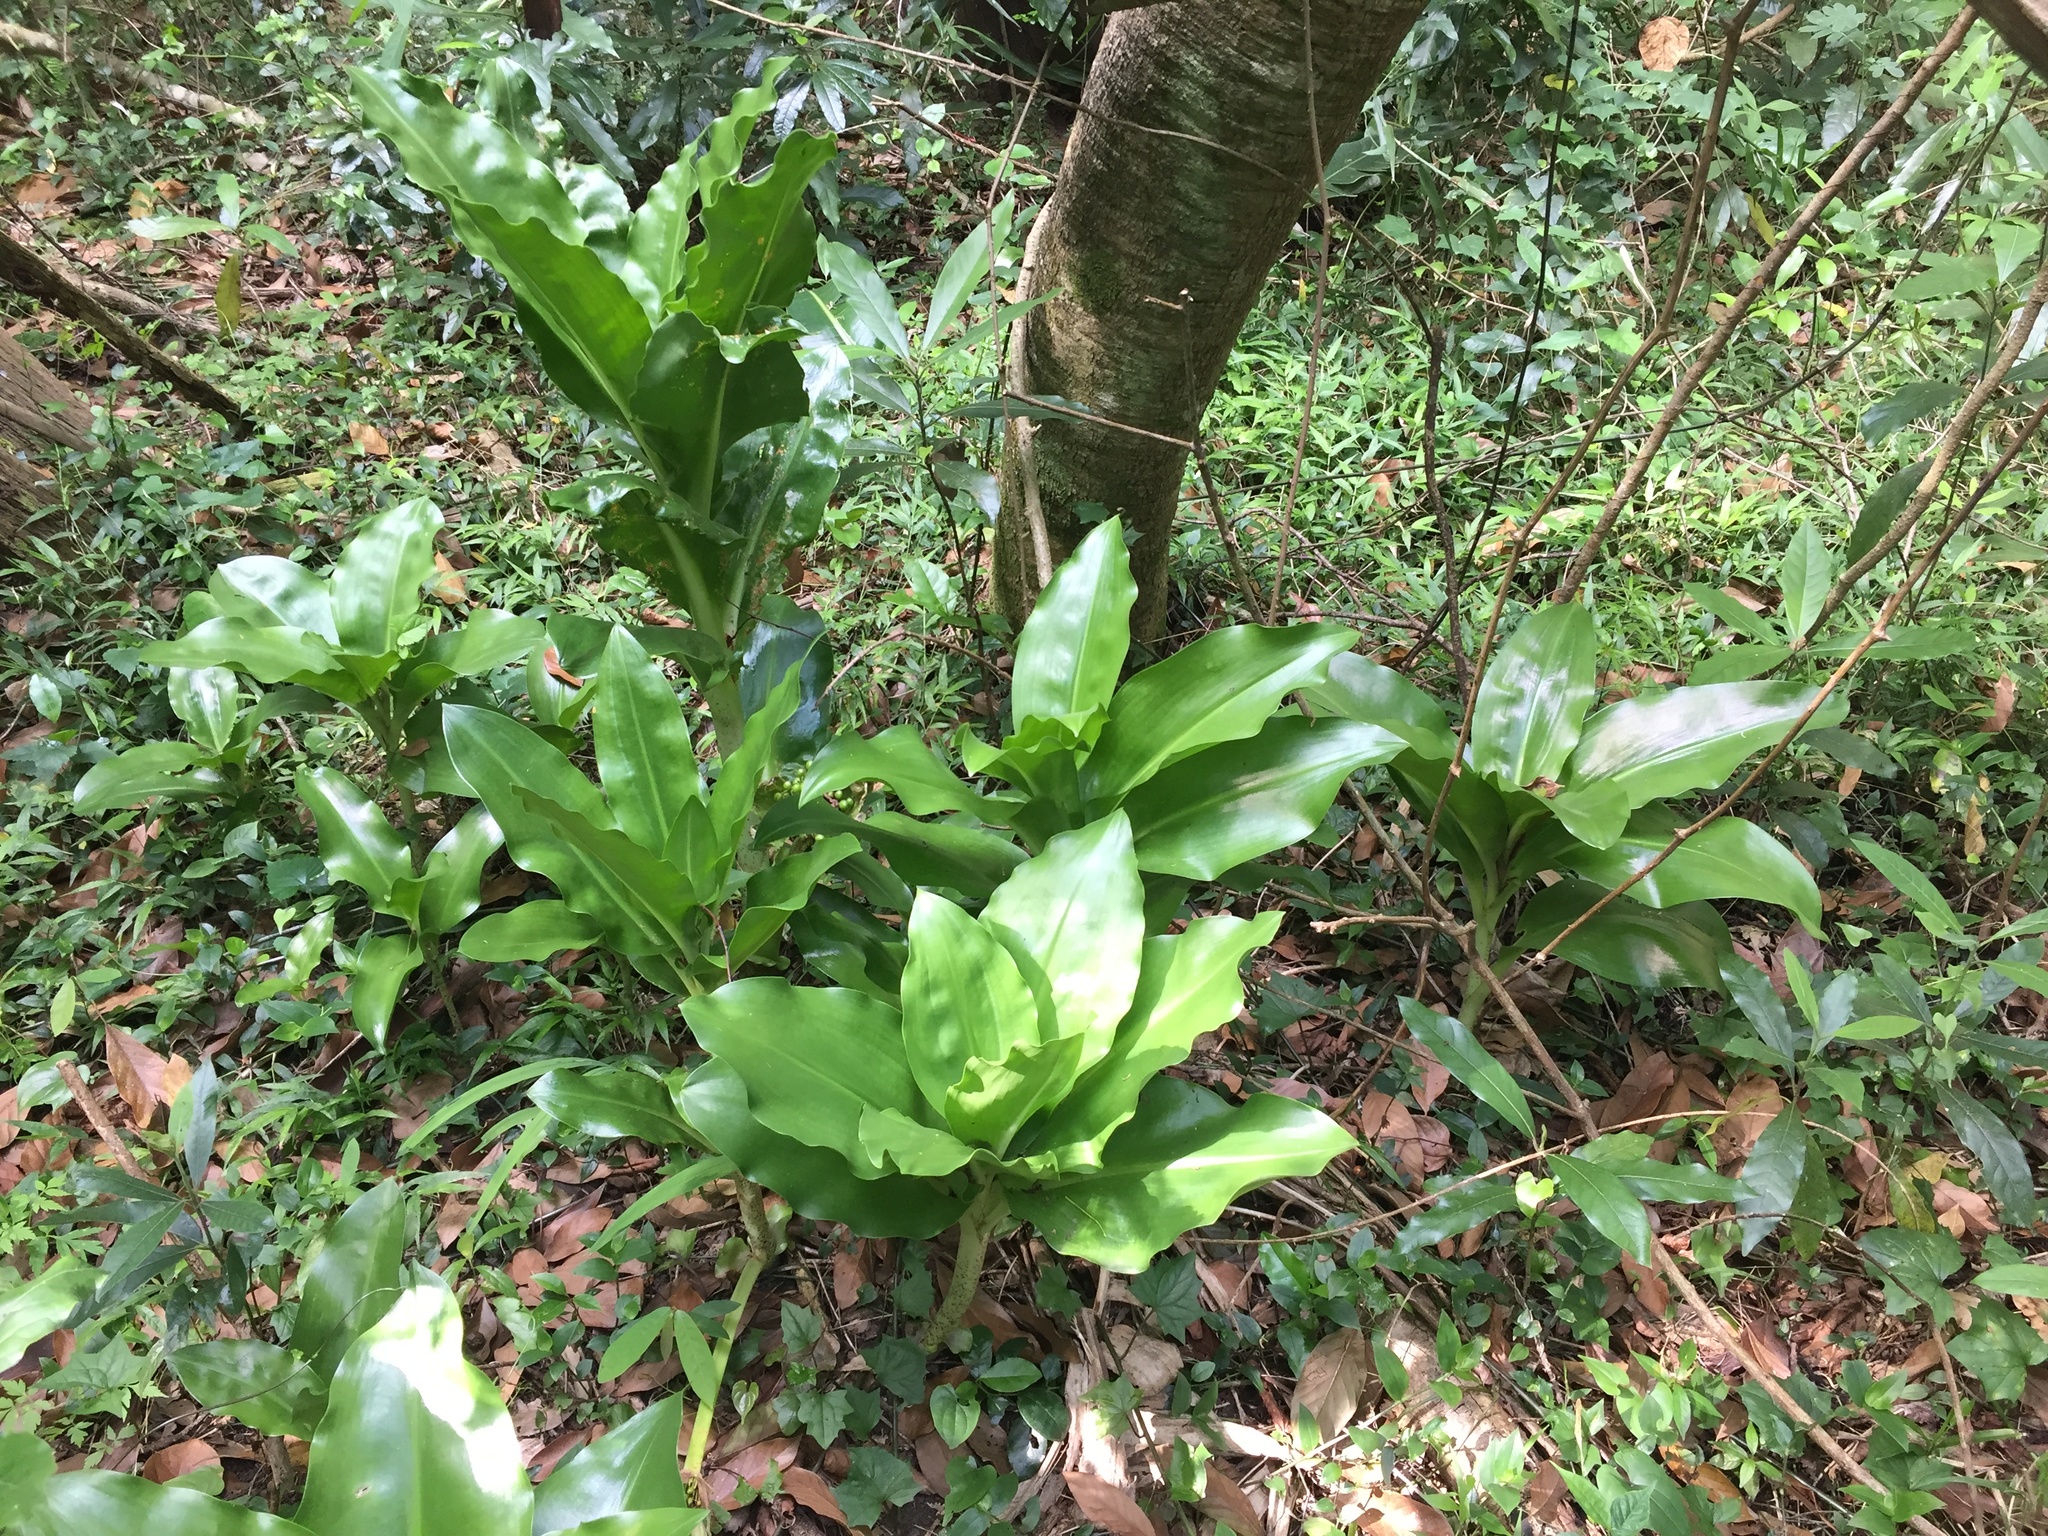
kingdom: Plantae
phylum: Tracheophyta
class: Liliopsida
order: Asparagales
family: Amaryllidaceae
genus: Scadoxus
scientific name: Scadoxus puniceus
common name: Royal-paintbrush
